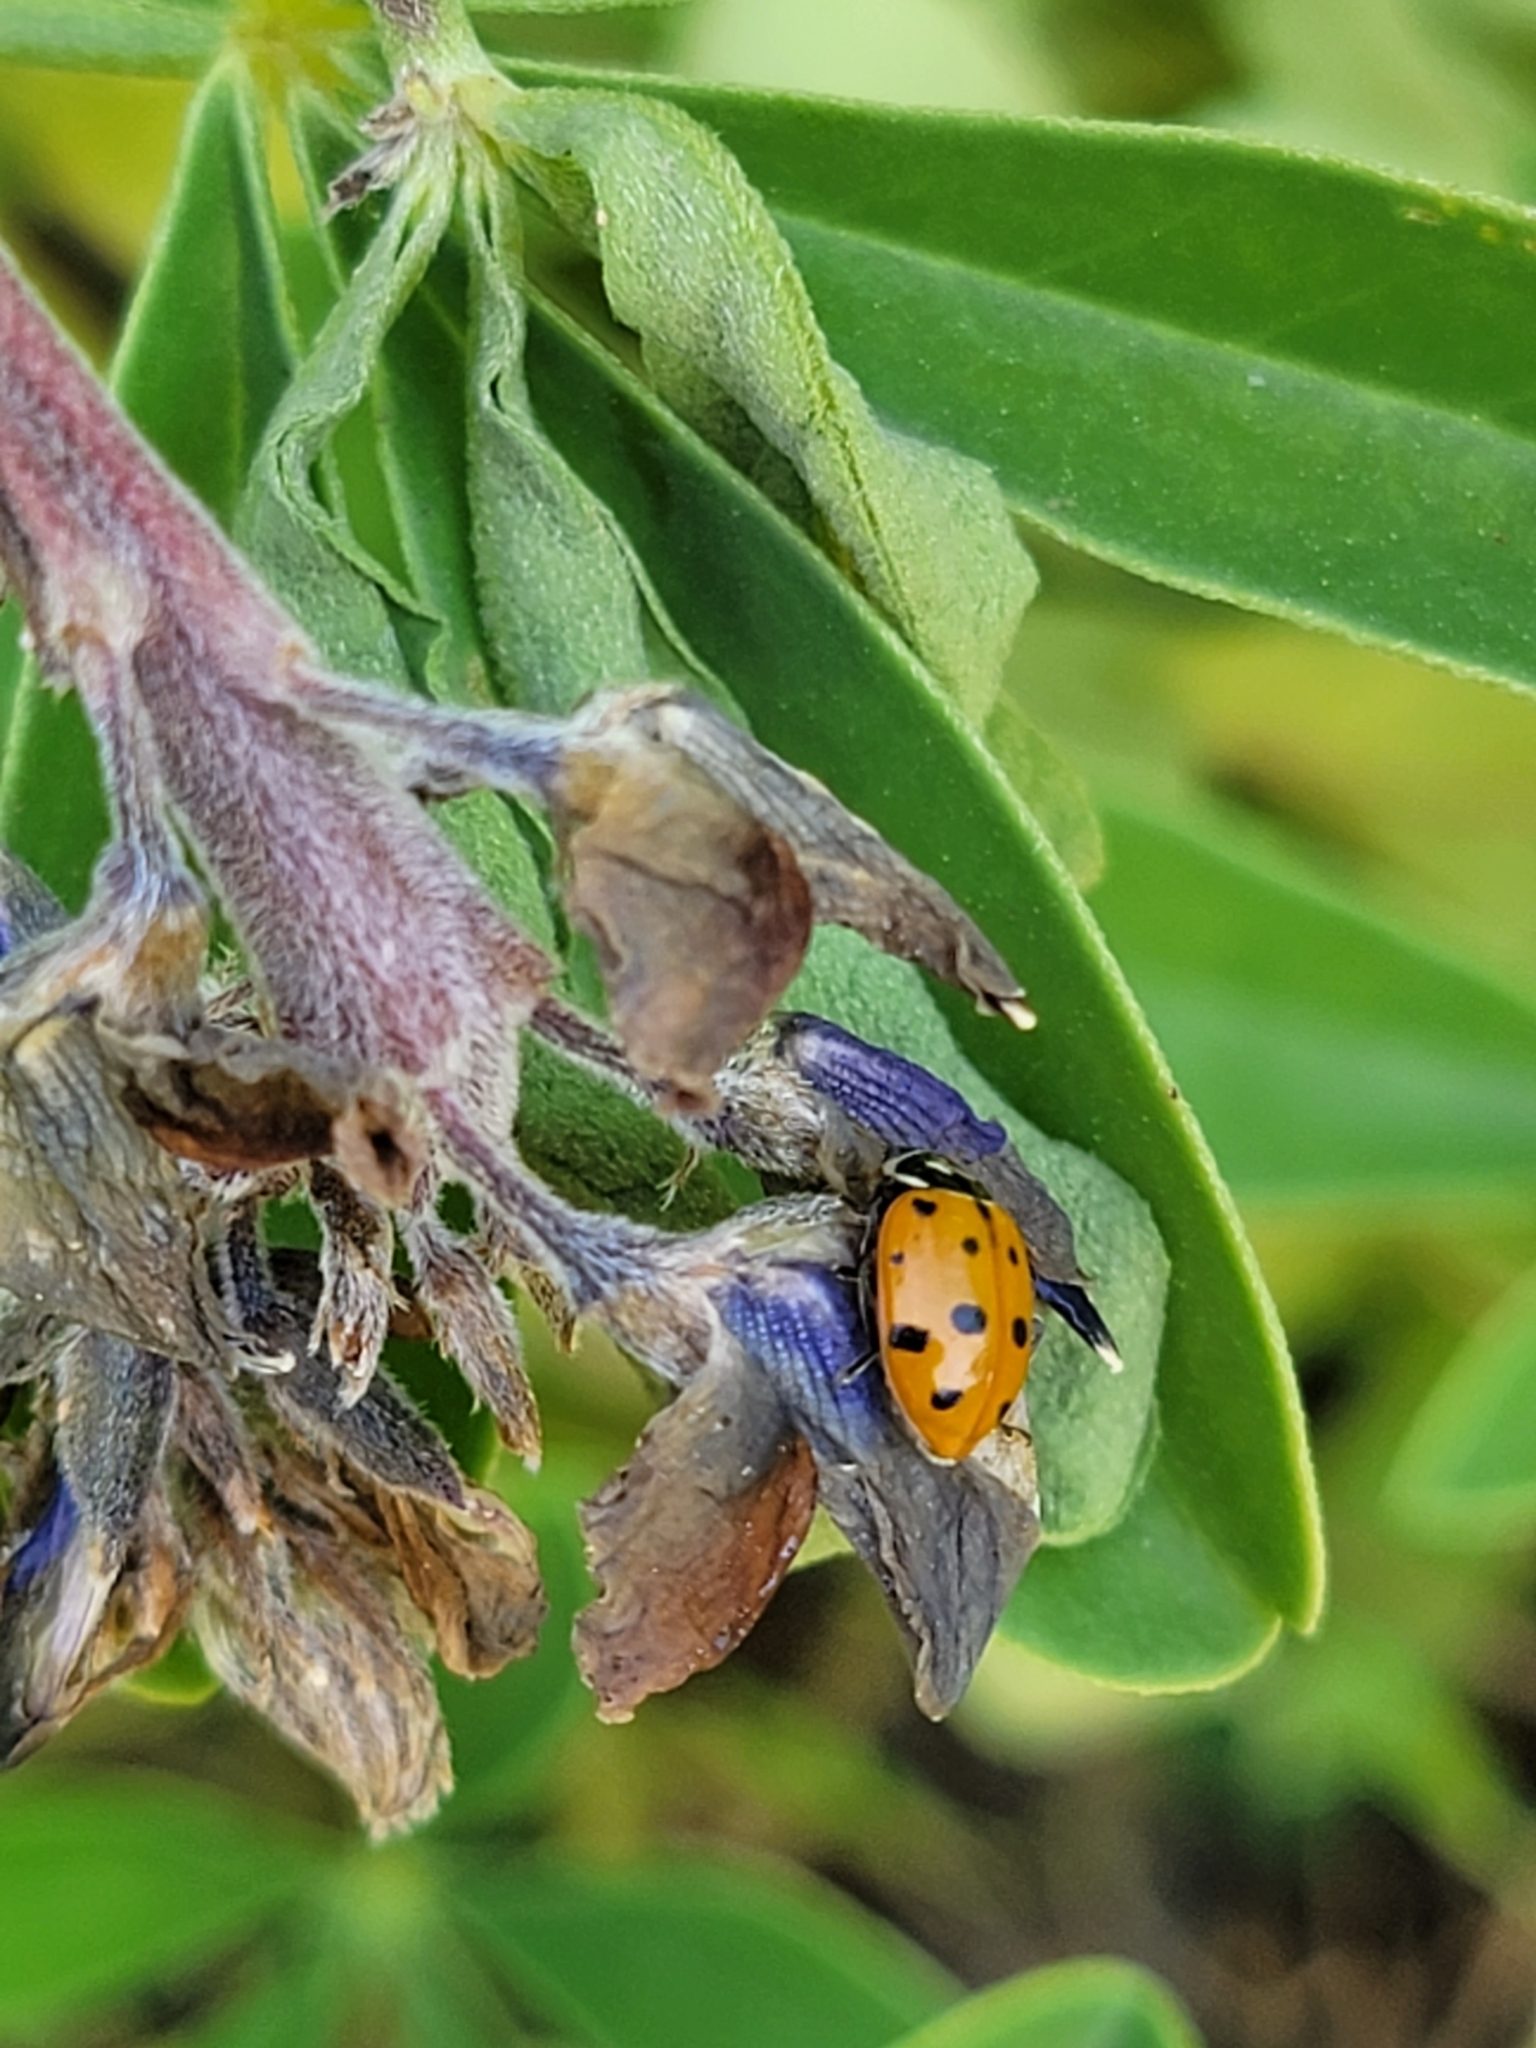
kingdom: Animalia
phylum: Arthropoda
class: Insecta
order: Coleoptera
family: Coccinellidae
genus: Hippodamia
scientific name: Hippodamia convergens
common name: Convergent lady beetle
